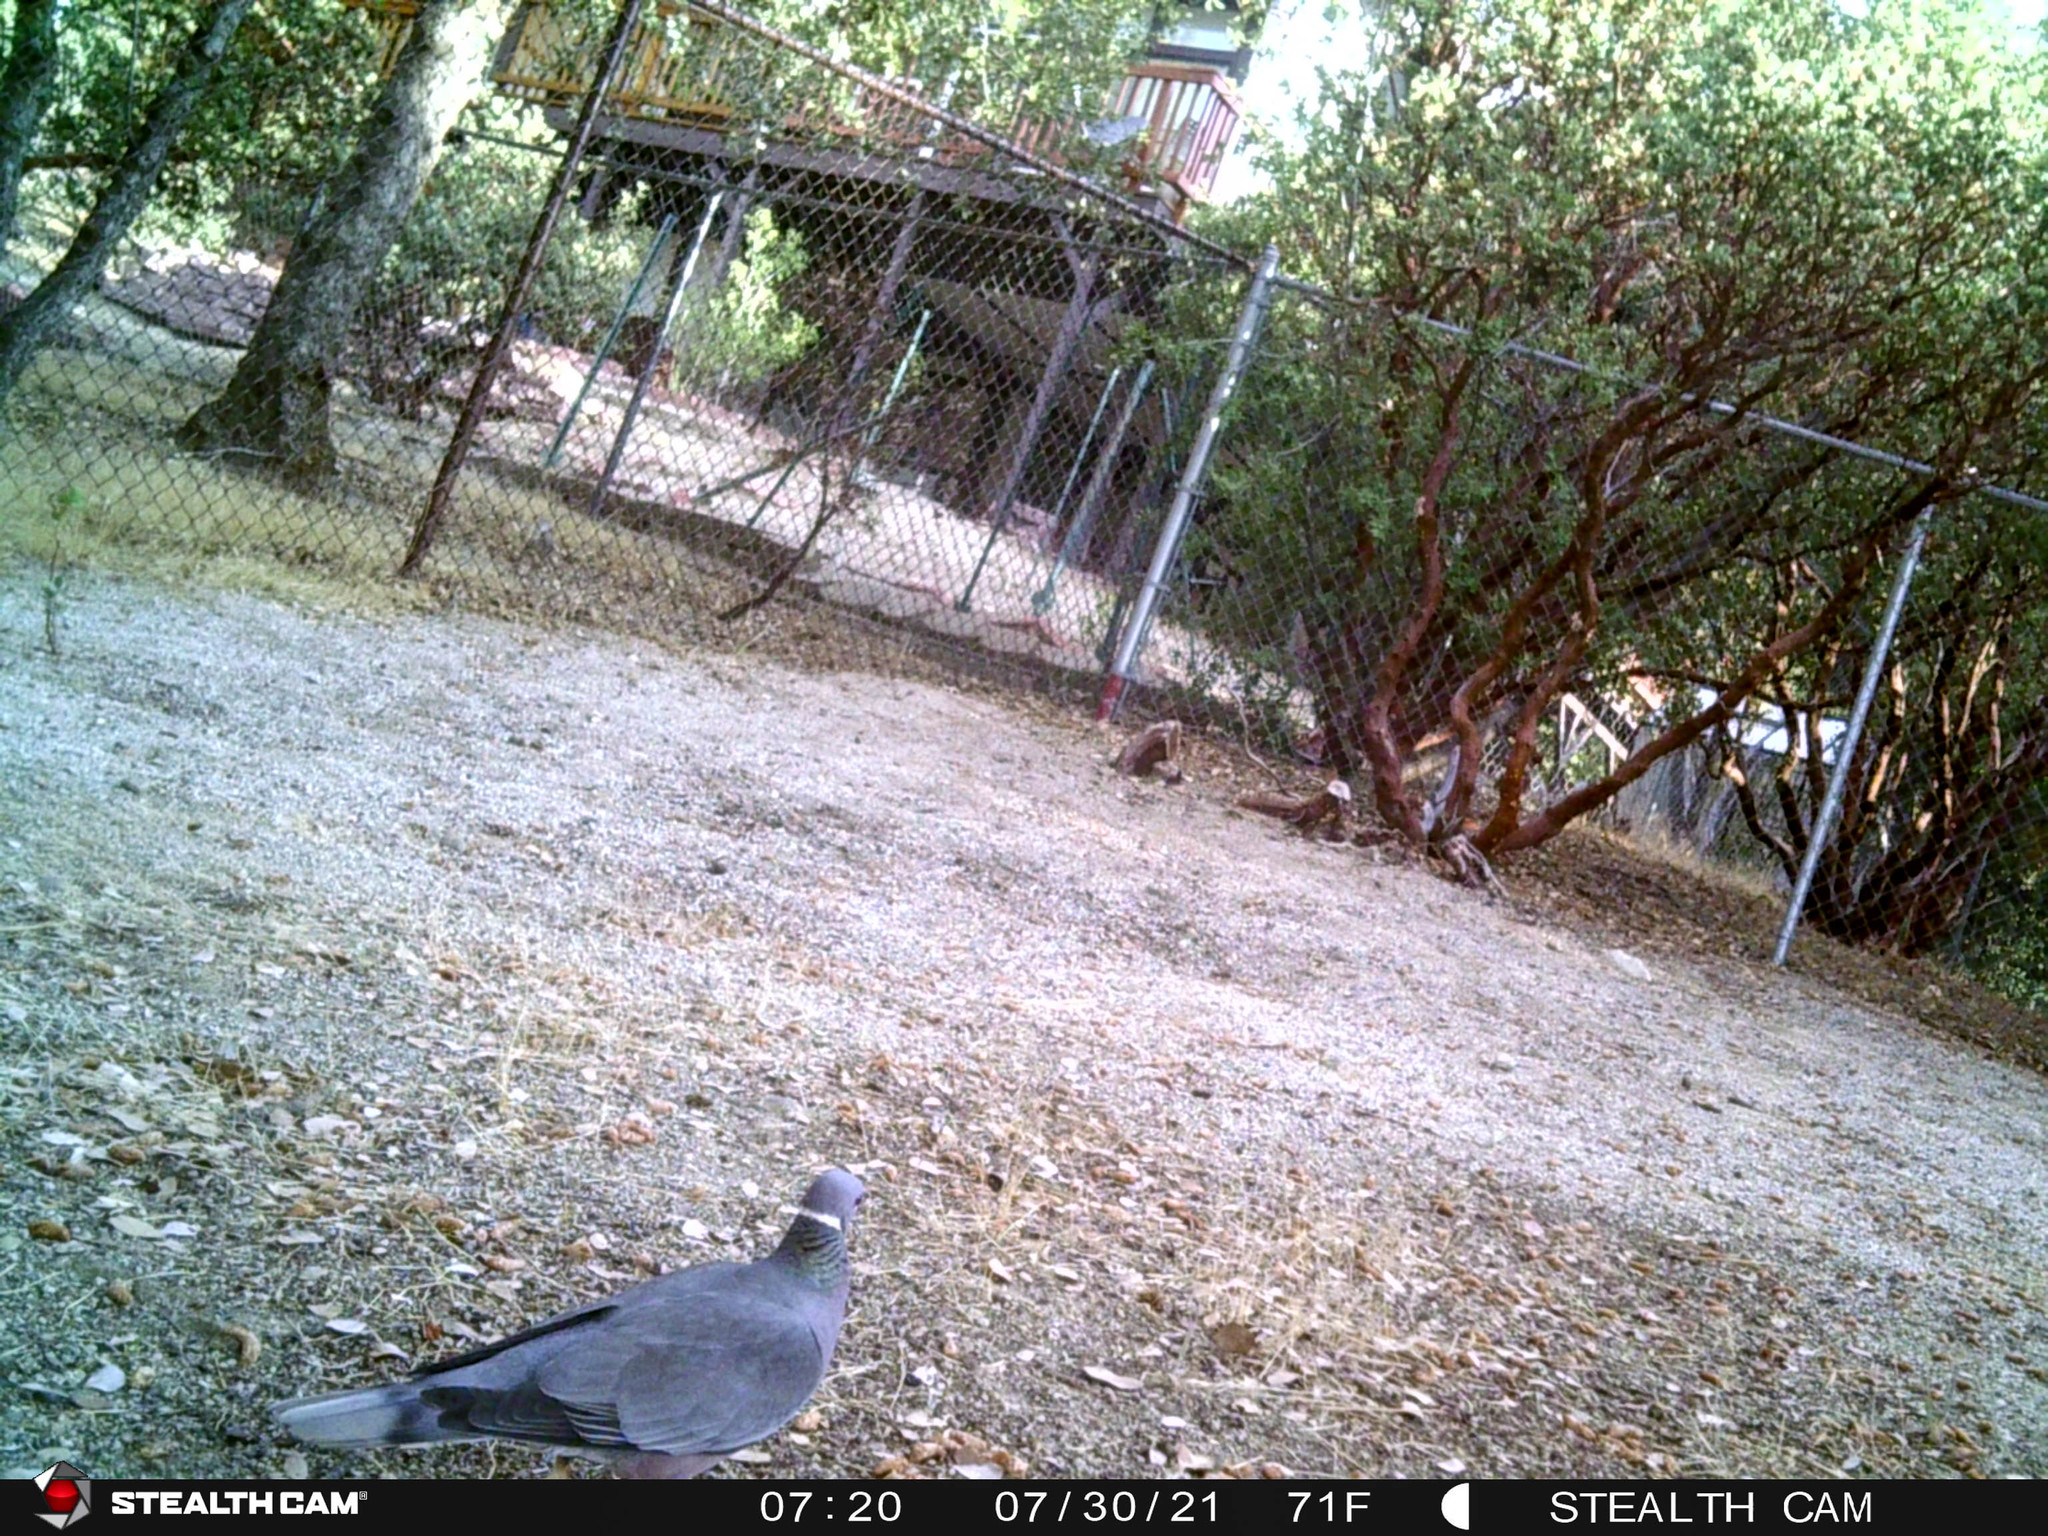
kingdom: Animalia
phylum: Chordata
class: Aves
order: Columbiformes
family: Columbidae
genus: Patagioenas
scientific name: Patagioenas fasciata
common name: Band-tailed pigeon
